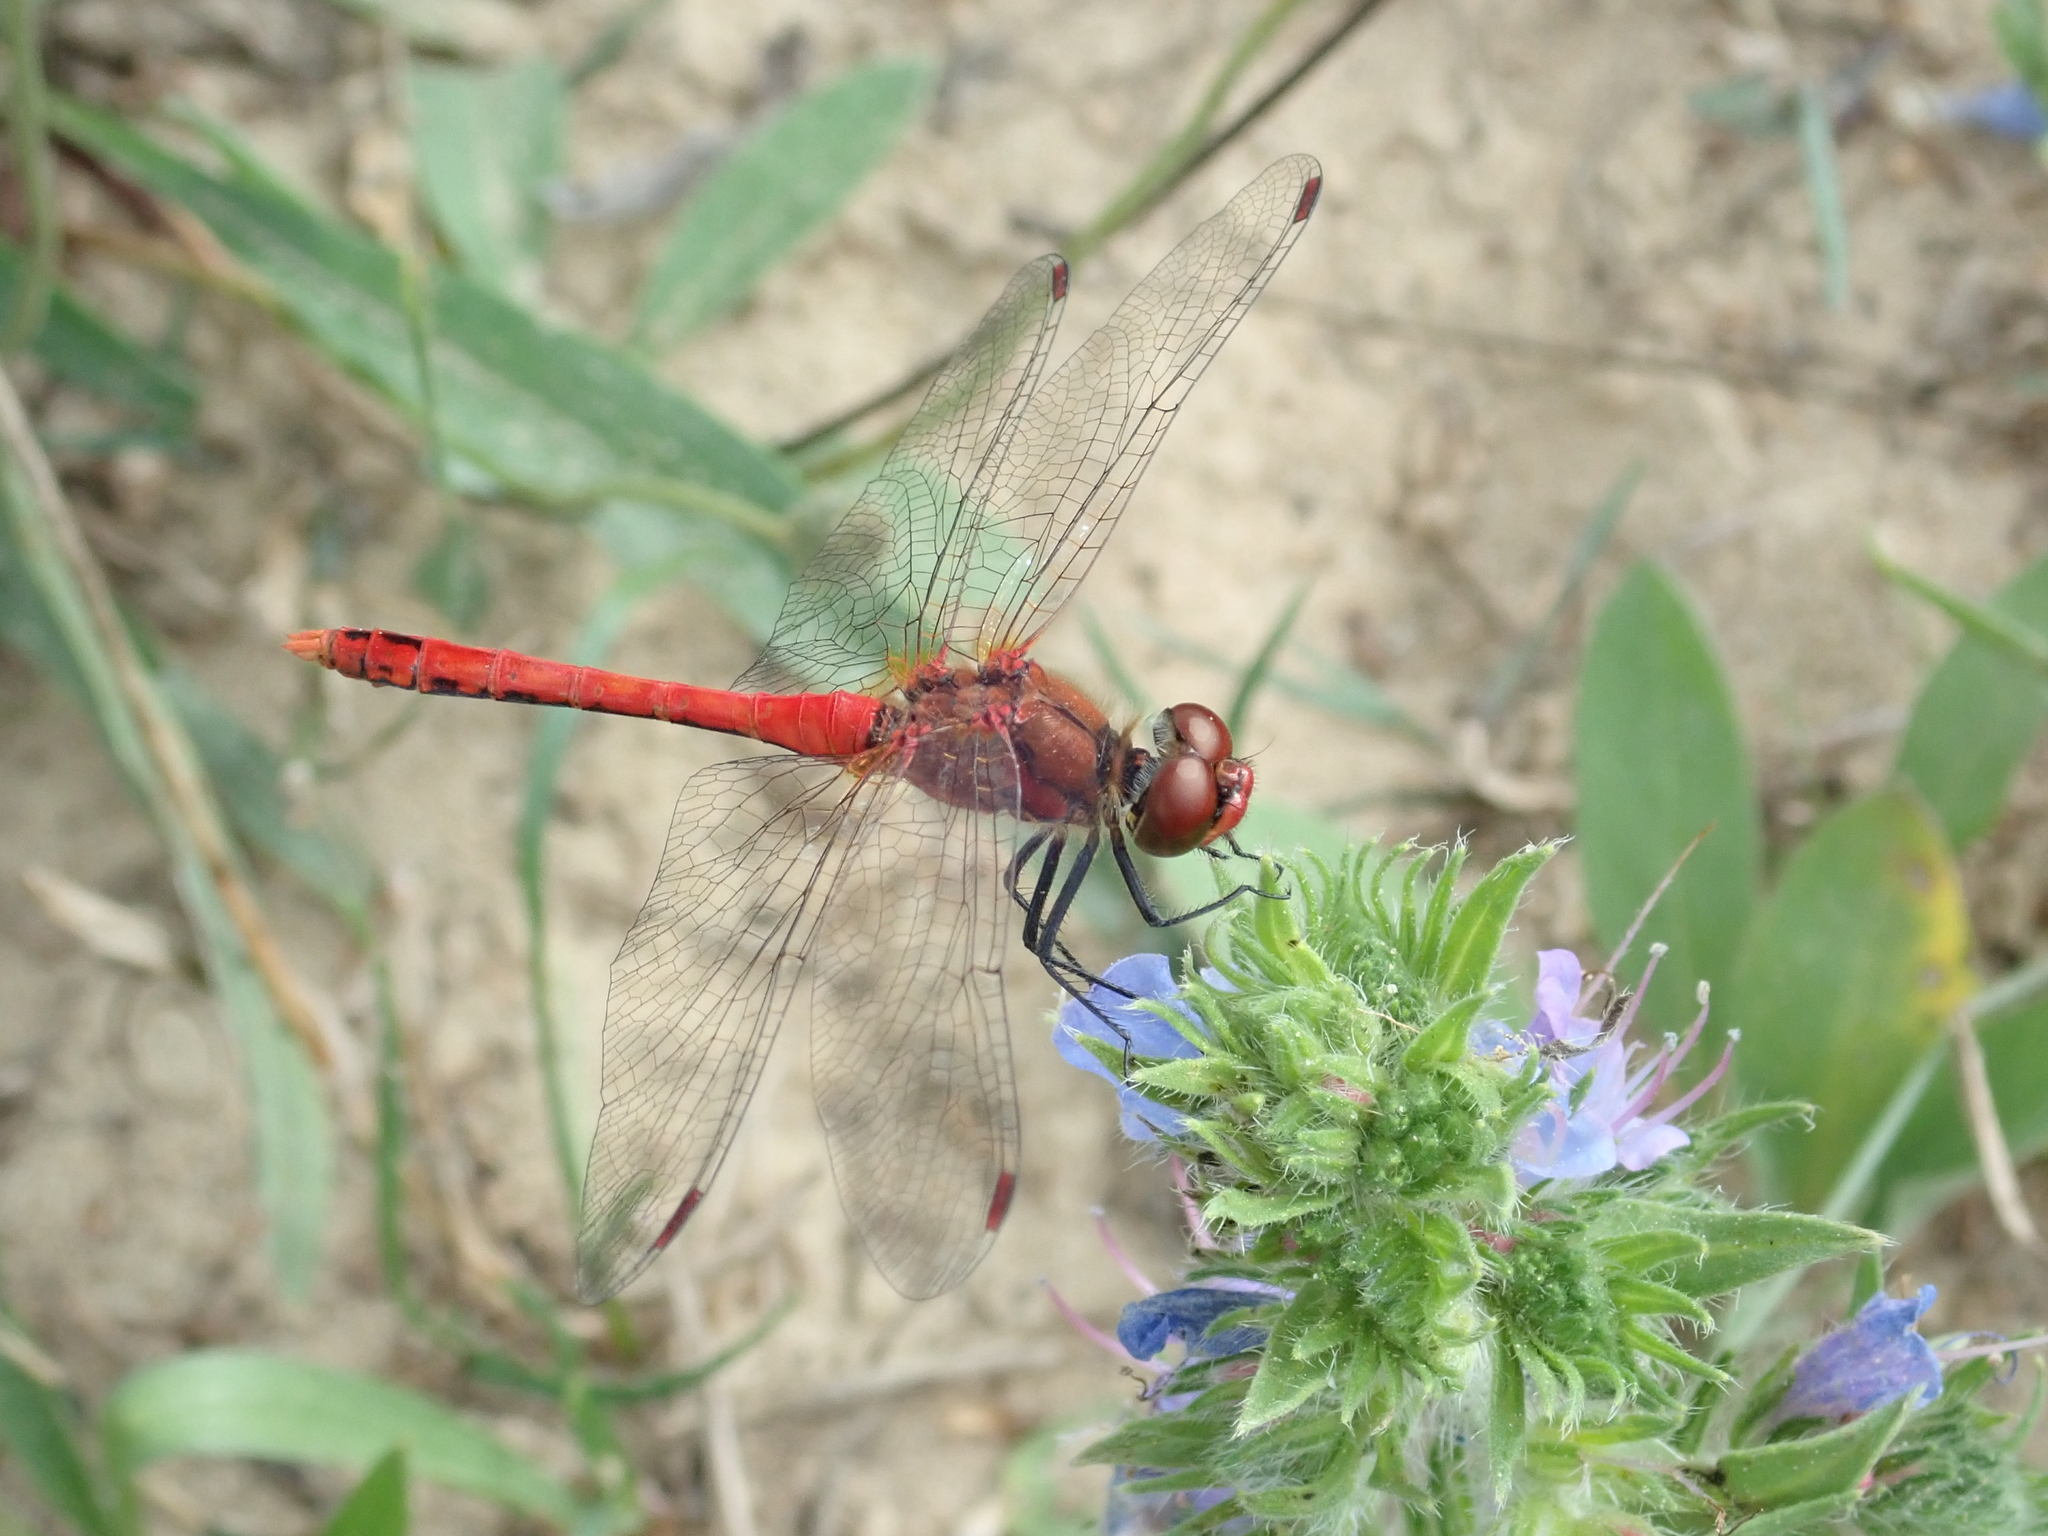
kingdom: Animalia
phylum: Arthropoda
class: Insecta
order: Odonata
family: Libellulidae
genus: Sympetrum
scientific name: Sympetrum sanguineum
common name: Ruddy darter
